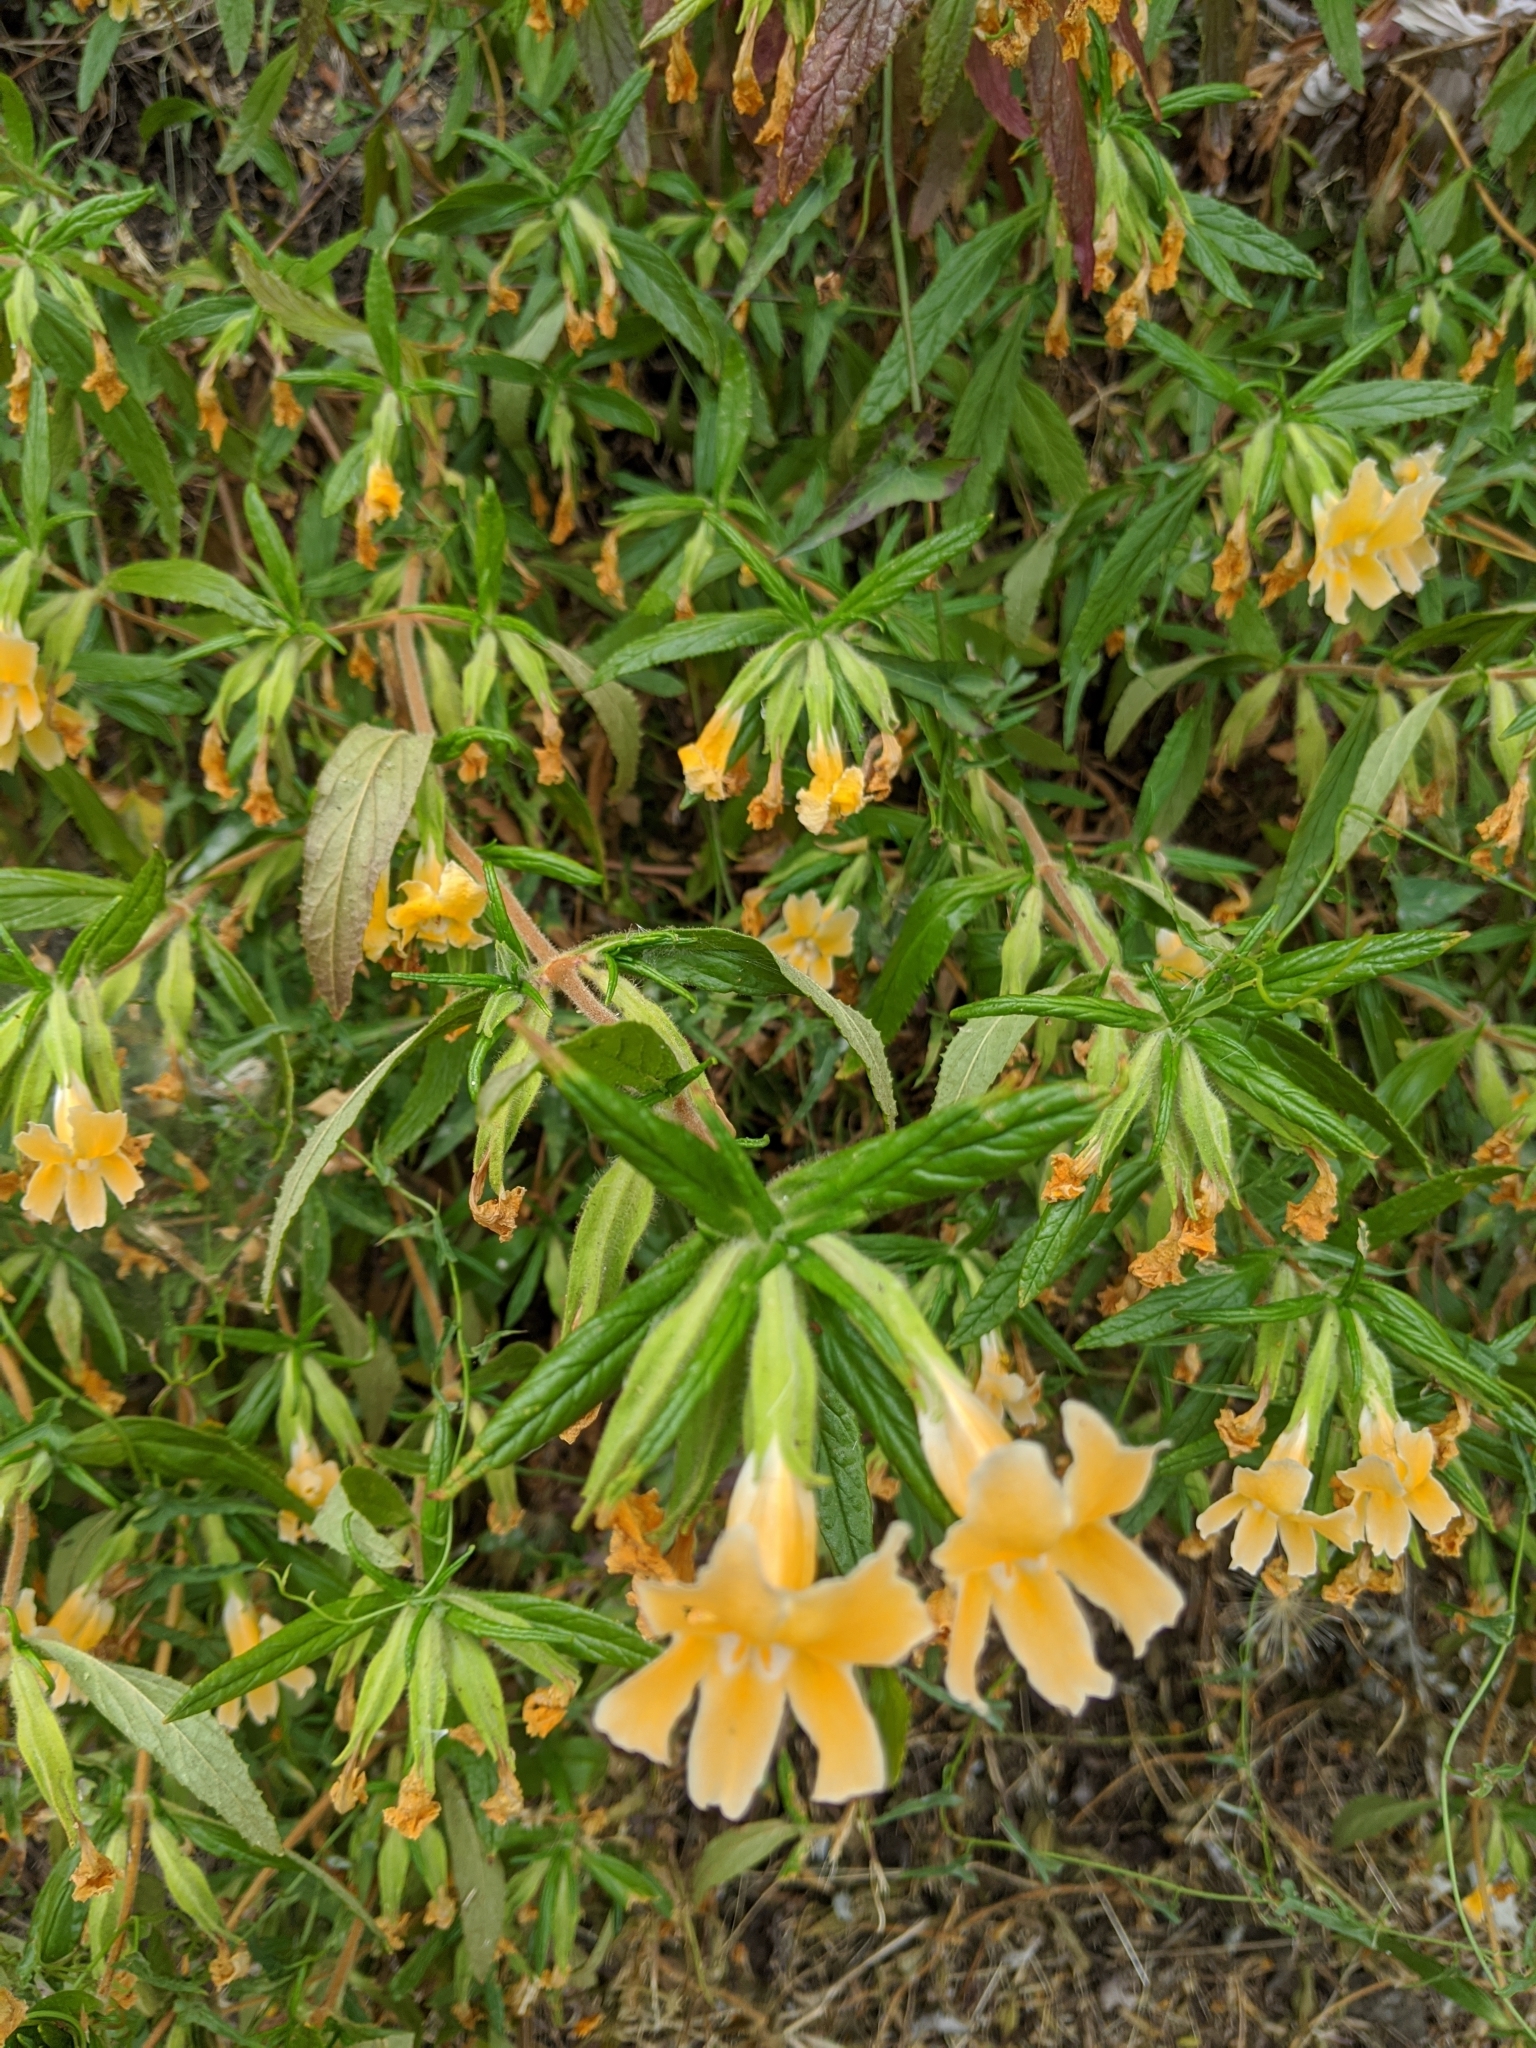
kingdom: Plantae
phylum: Tracheophyta
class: Magnoliopsida
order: Lamiales
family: Phrymaceae
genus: Diplacus
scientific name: Diplacus longiflorus
